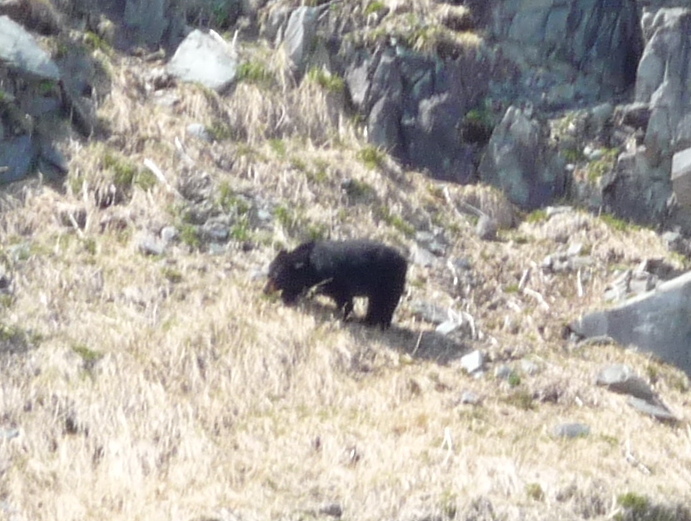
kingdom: Animalia
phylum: Chordata
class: Mammalia
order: Carnivora
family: Ursidae
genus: Ursus
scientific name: Ursus americanus
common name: American black bear
